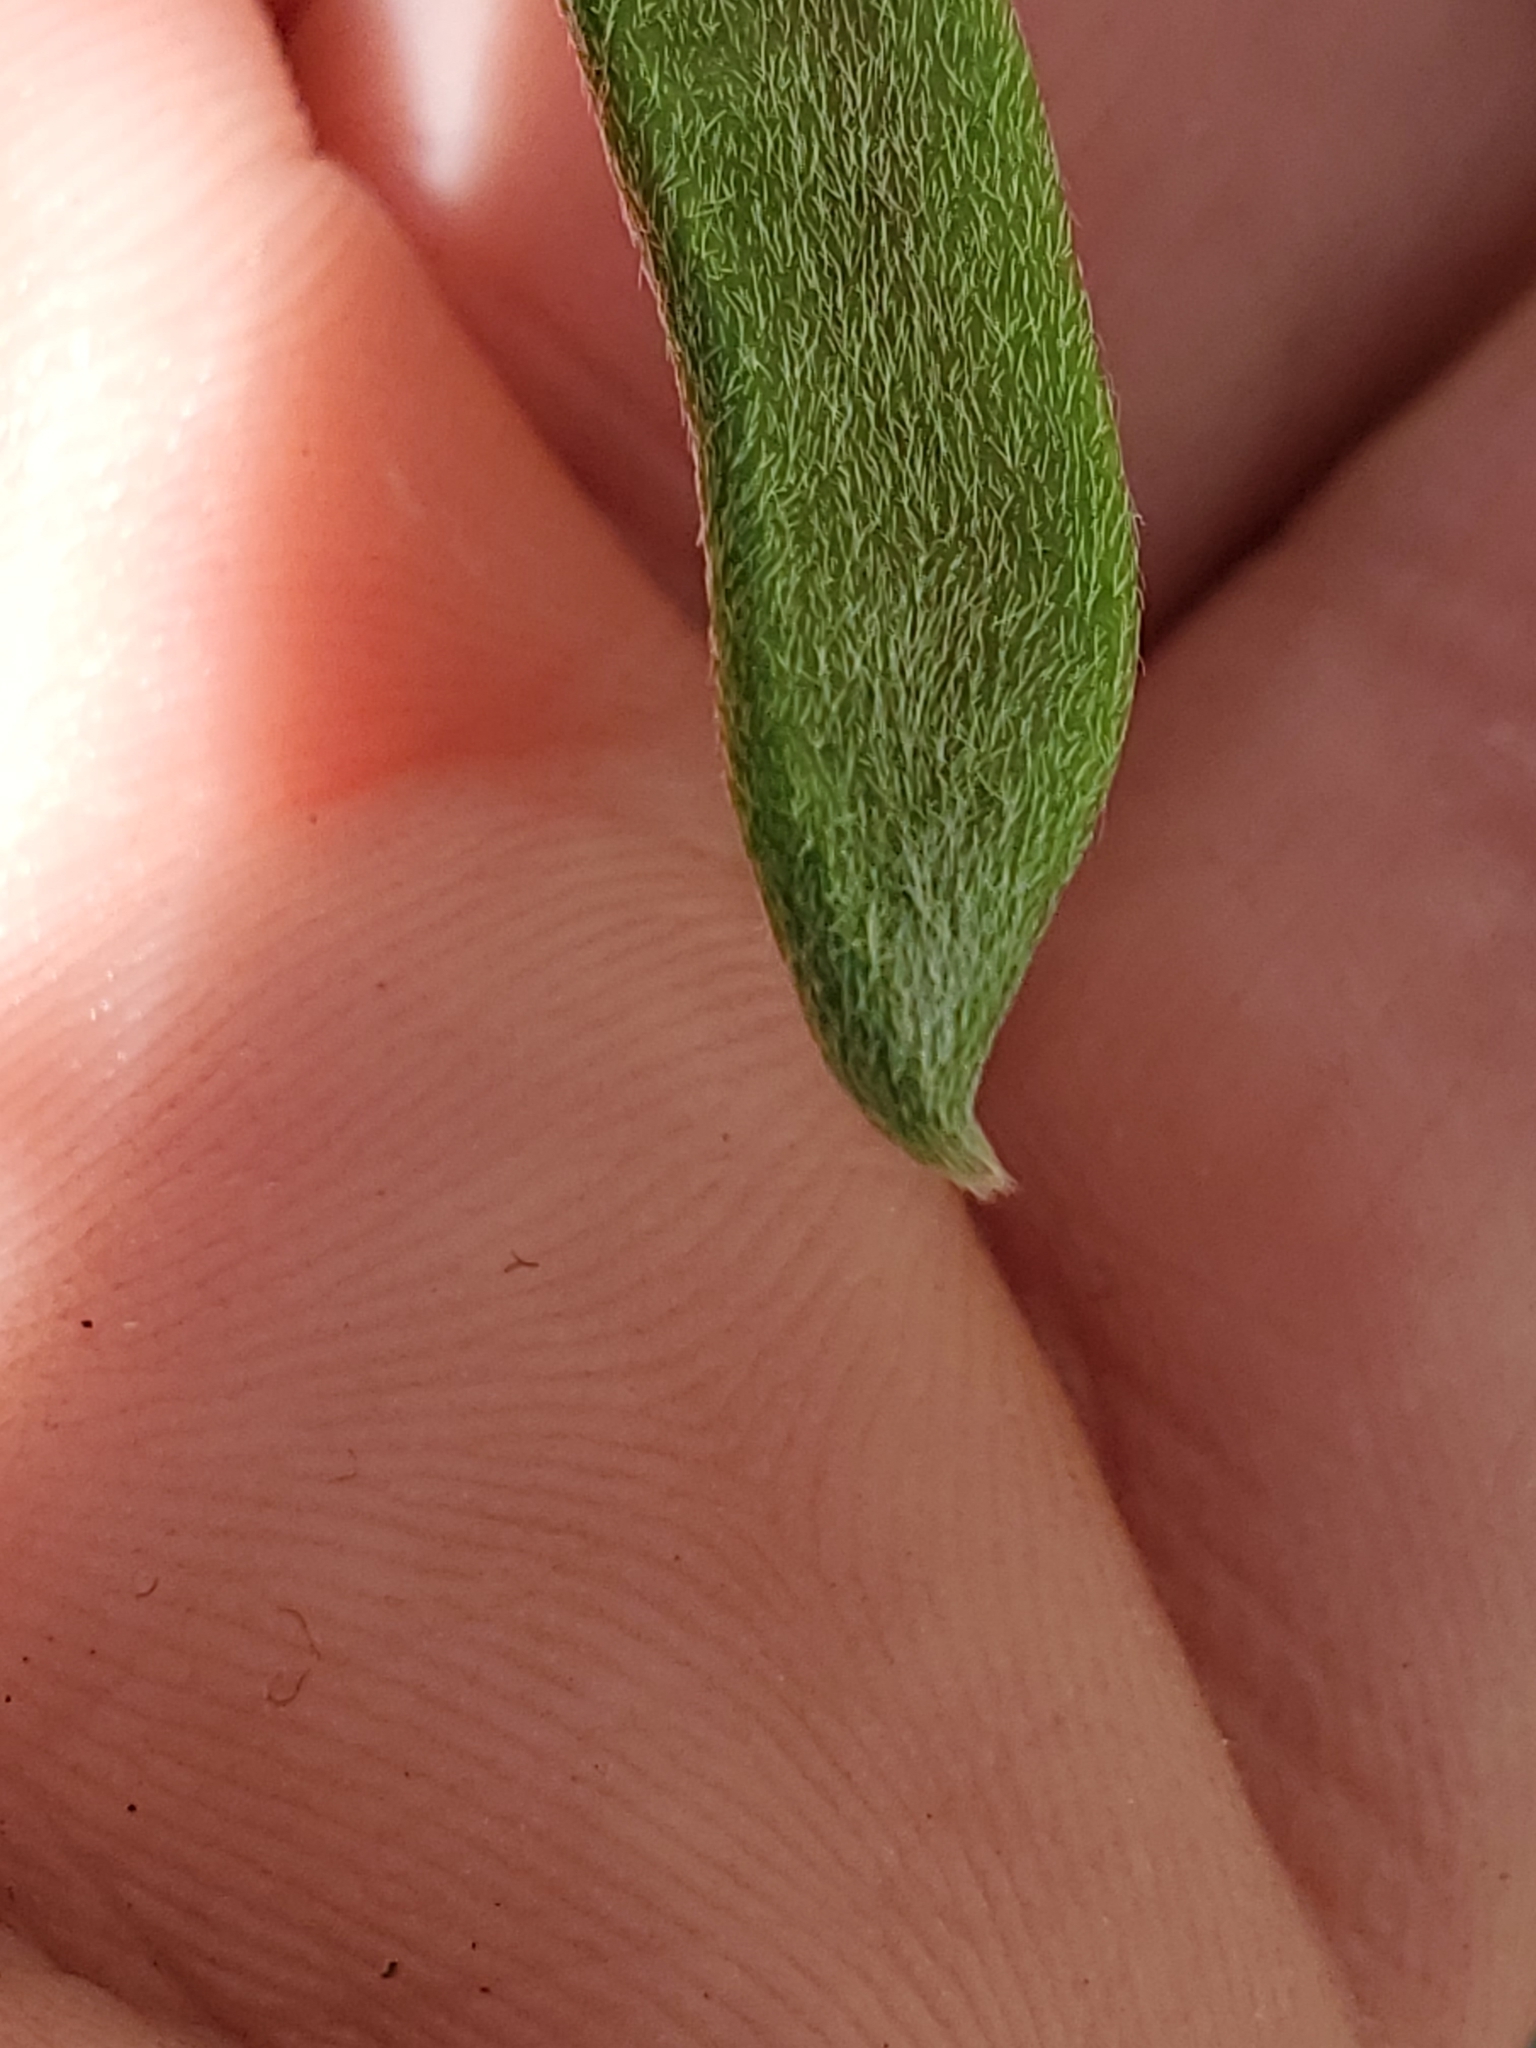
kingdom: Plantae
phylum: Tracheophyta
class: Magnoliopsida
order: Fabales
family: Fabaceae
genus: Galactia
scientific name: Galactia regularis
